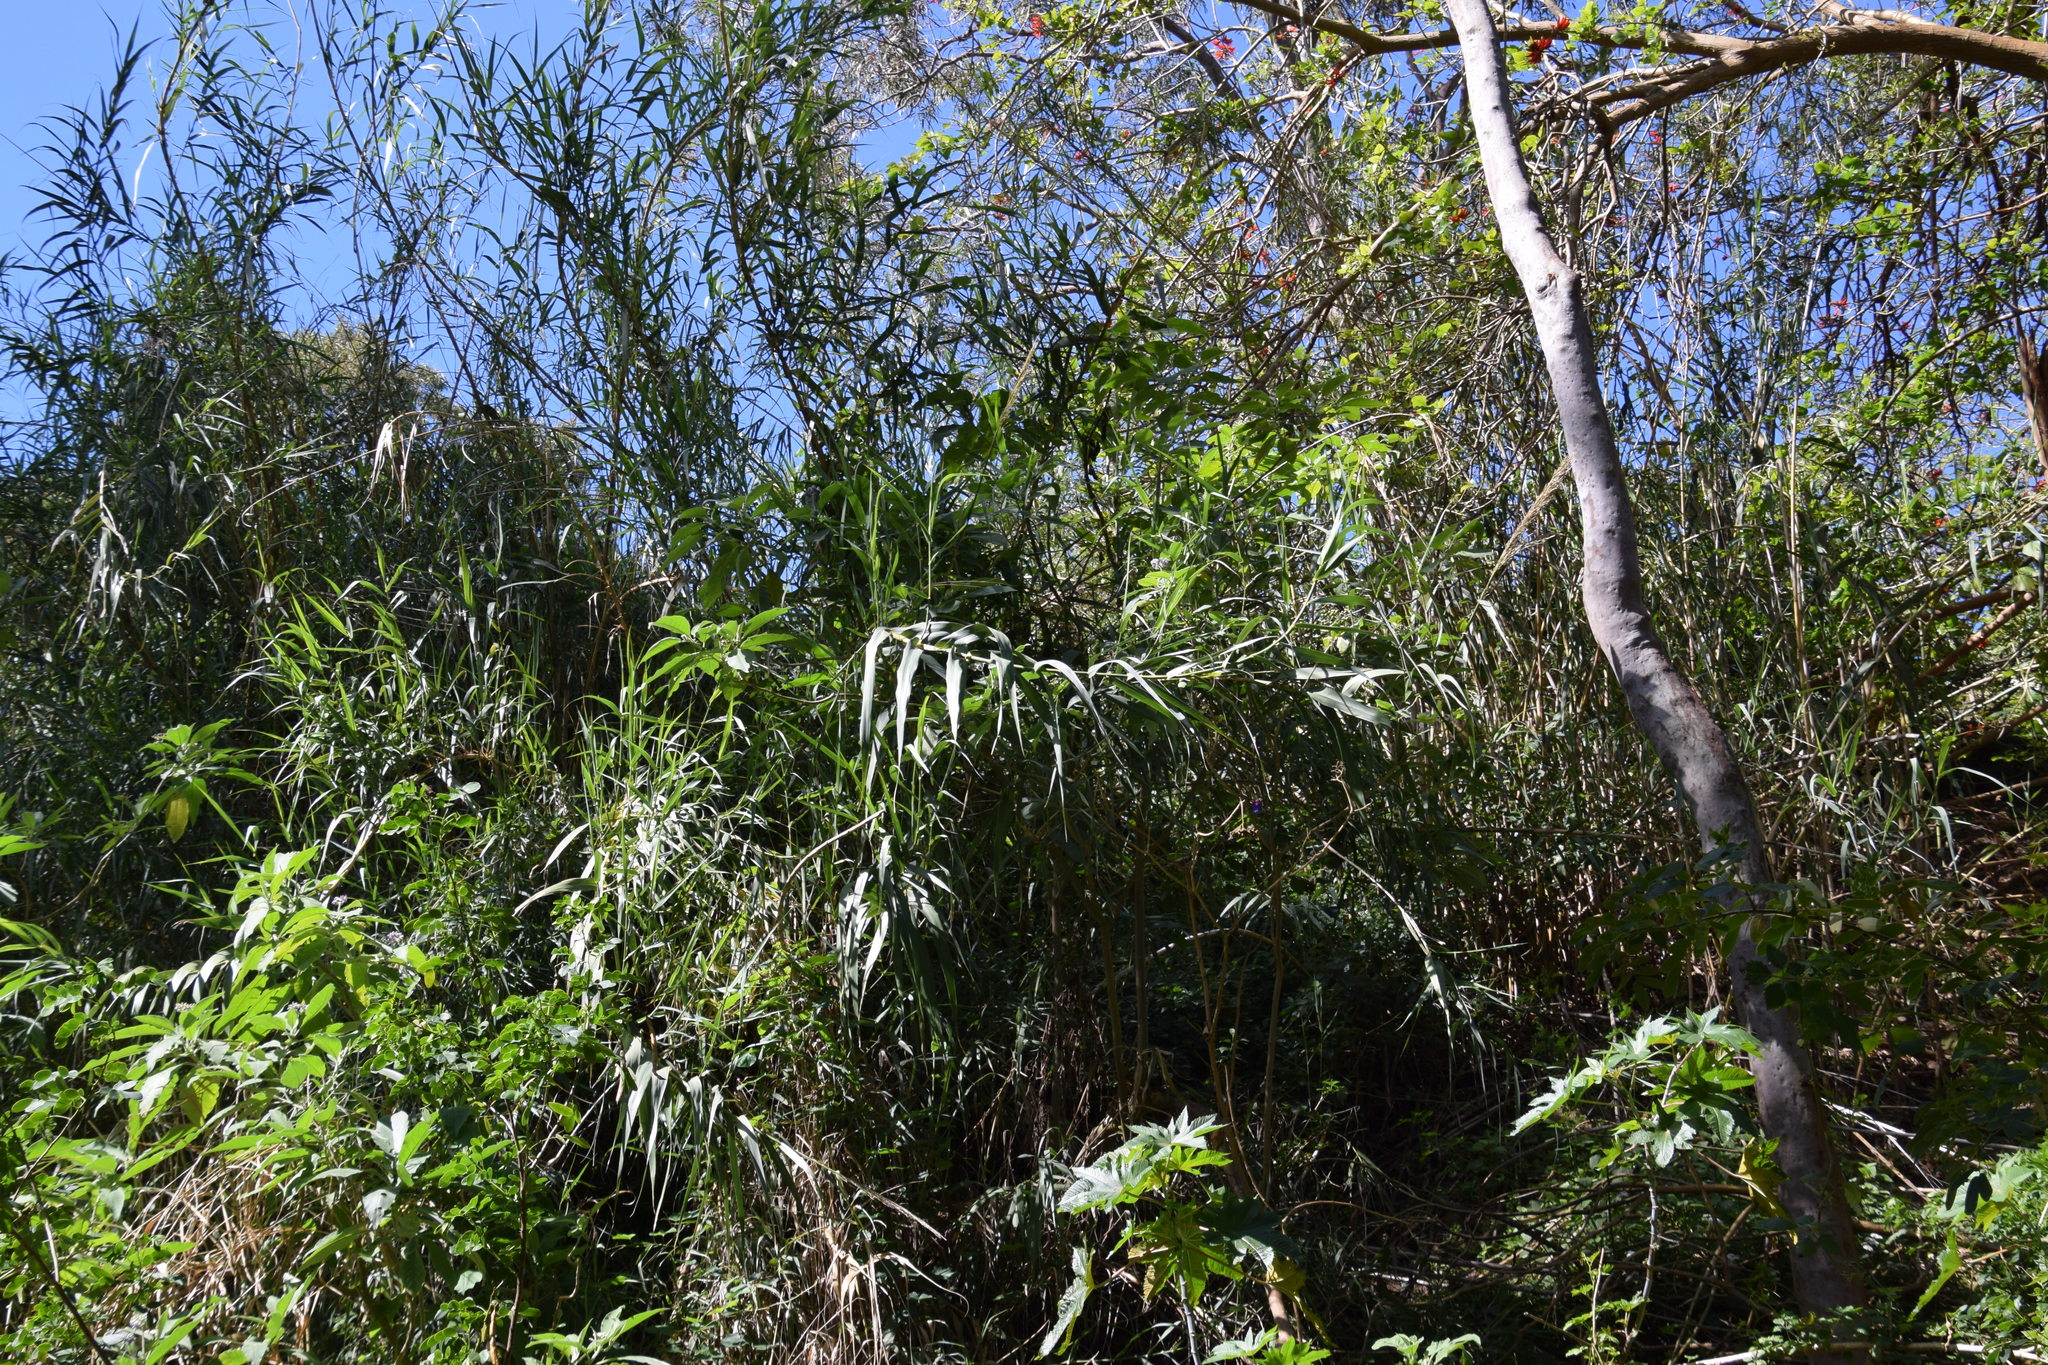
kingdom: Plantae
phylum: Tracheophyta
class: Liliopsida
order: Poales
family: Poaceae
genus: Arundo
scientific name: Arundo donax
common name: Giant reed
